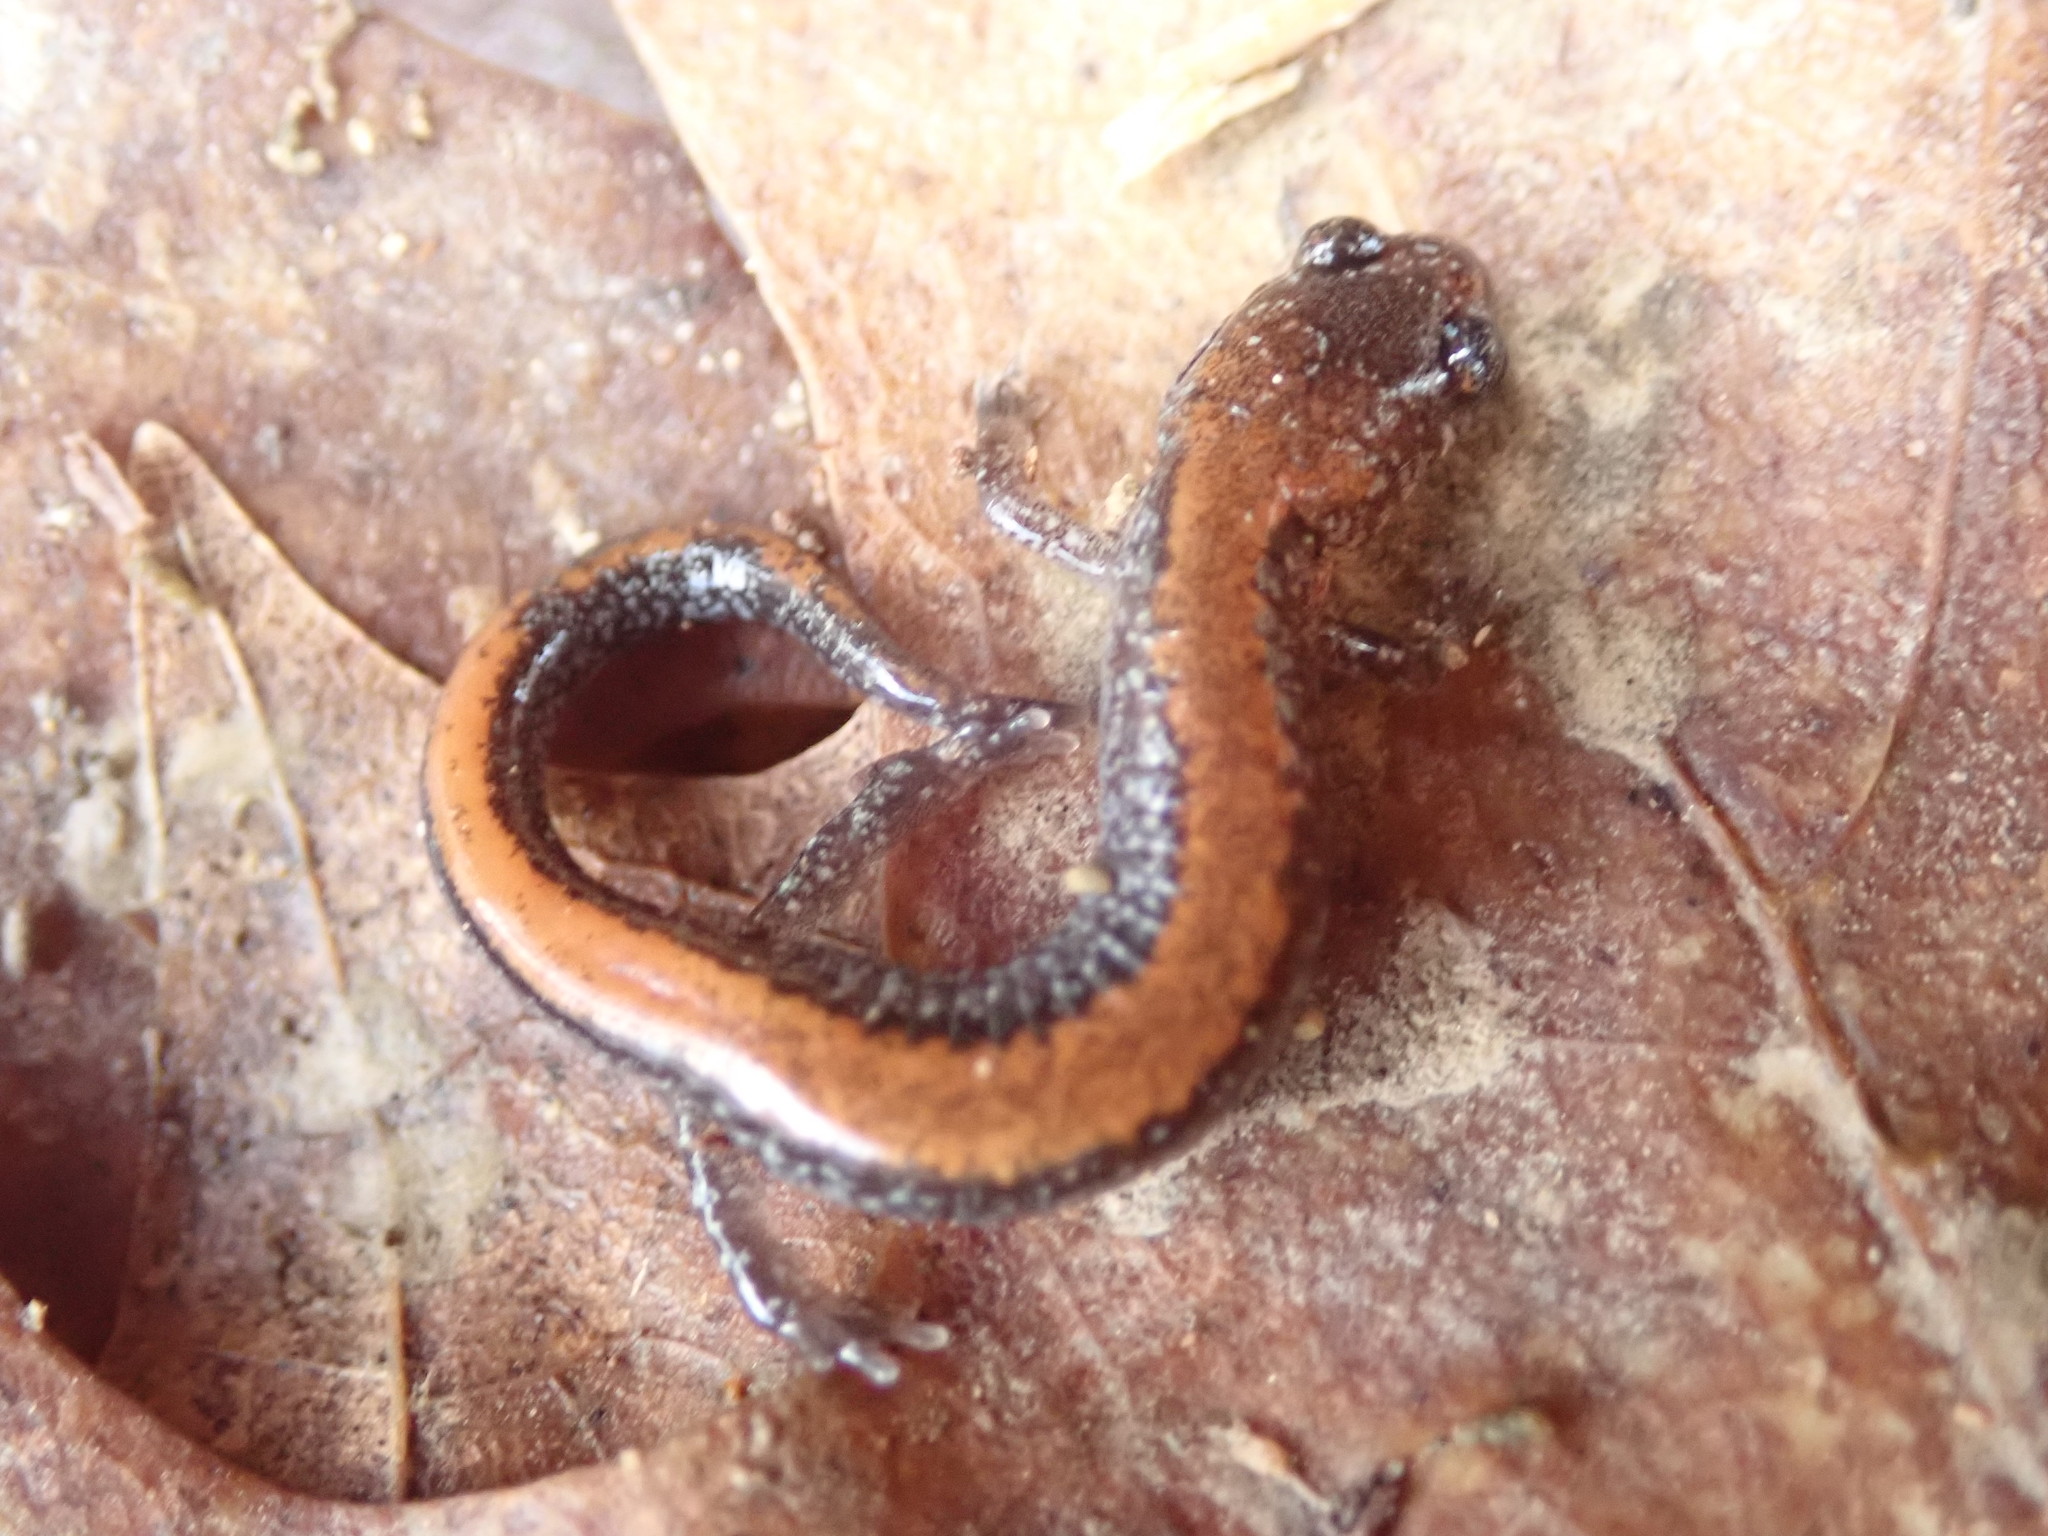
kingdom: Animalia
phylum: Chordata
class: Amphibia
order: Caudata
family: Plethodontidae
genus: Plethodon
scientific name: Plethodon cinereus
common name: Redback salamander
